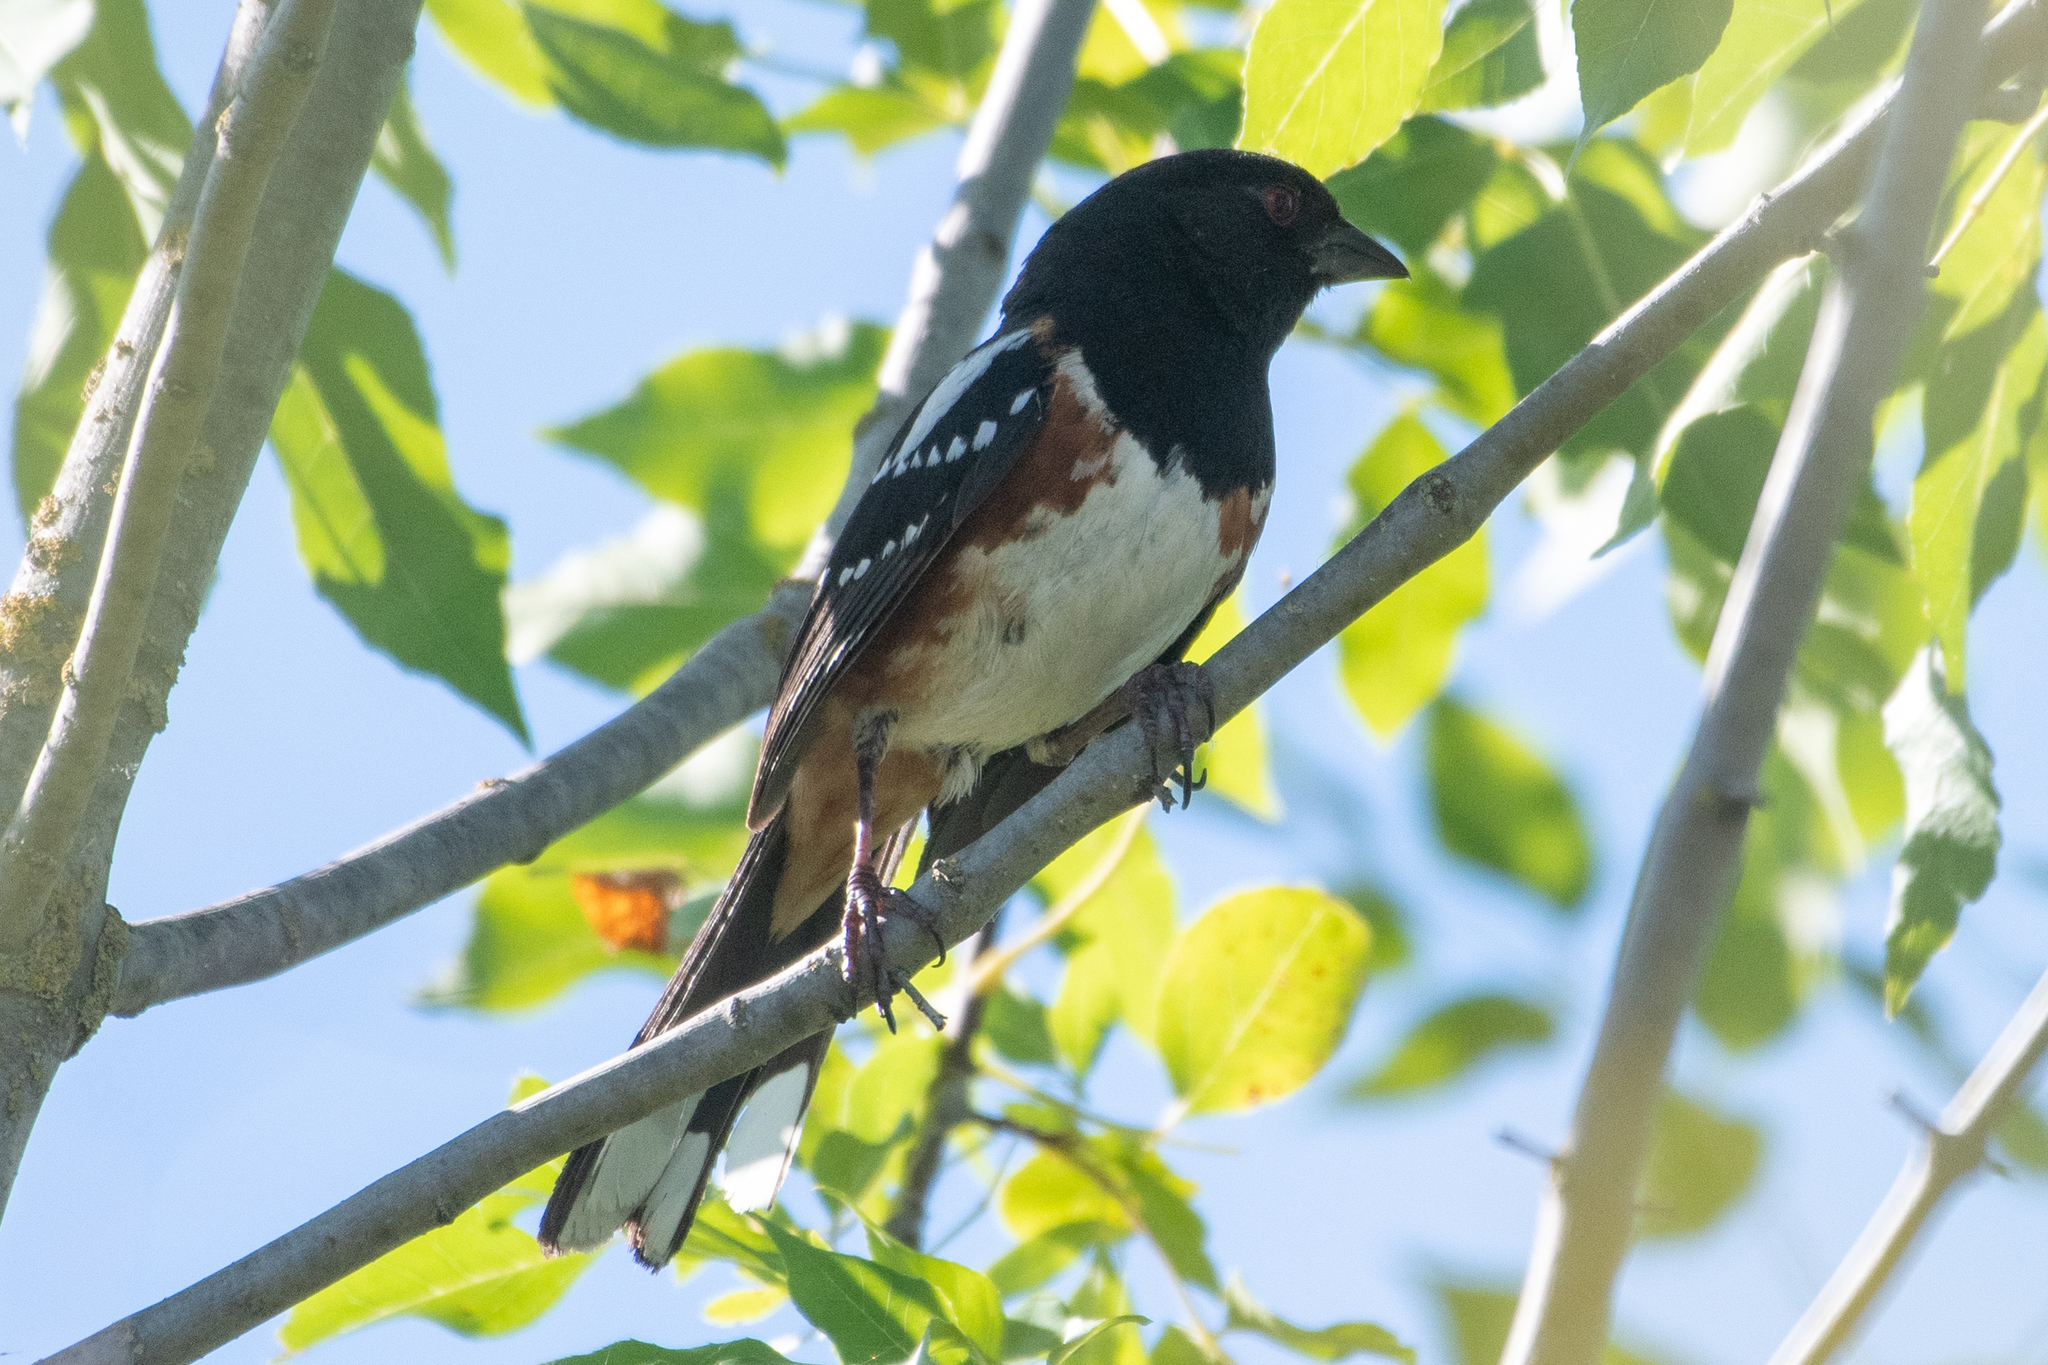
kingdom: Animalia
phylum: Chordata
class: Aves
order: Passeriformes
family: Passerellidae
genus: Pipilo
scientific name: Pipilo maculatus
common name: Spotted towhee
